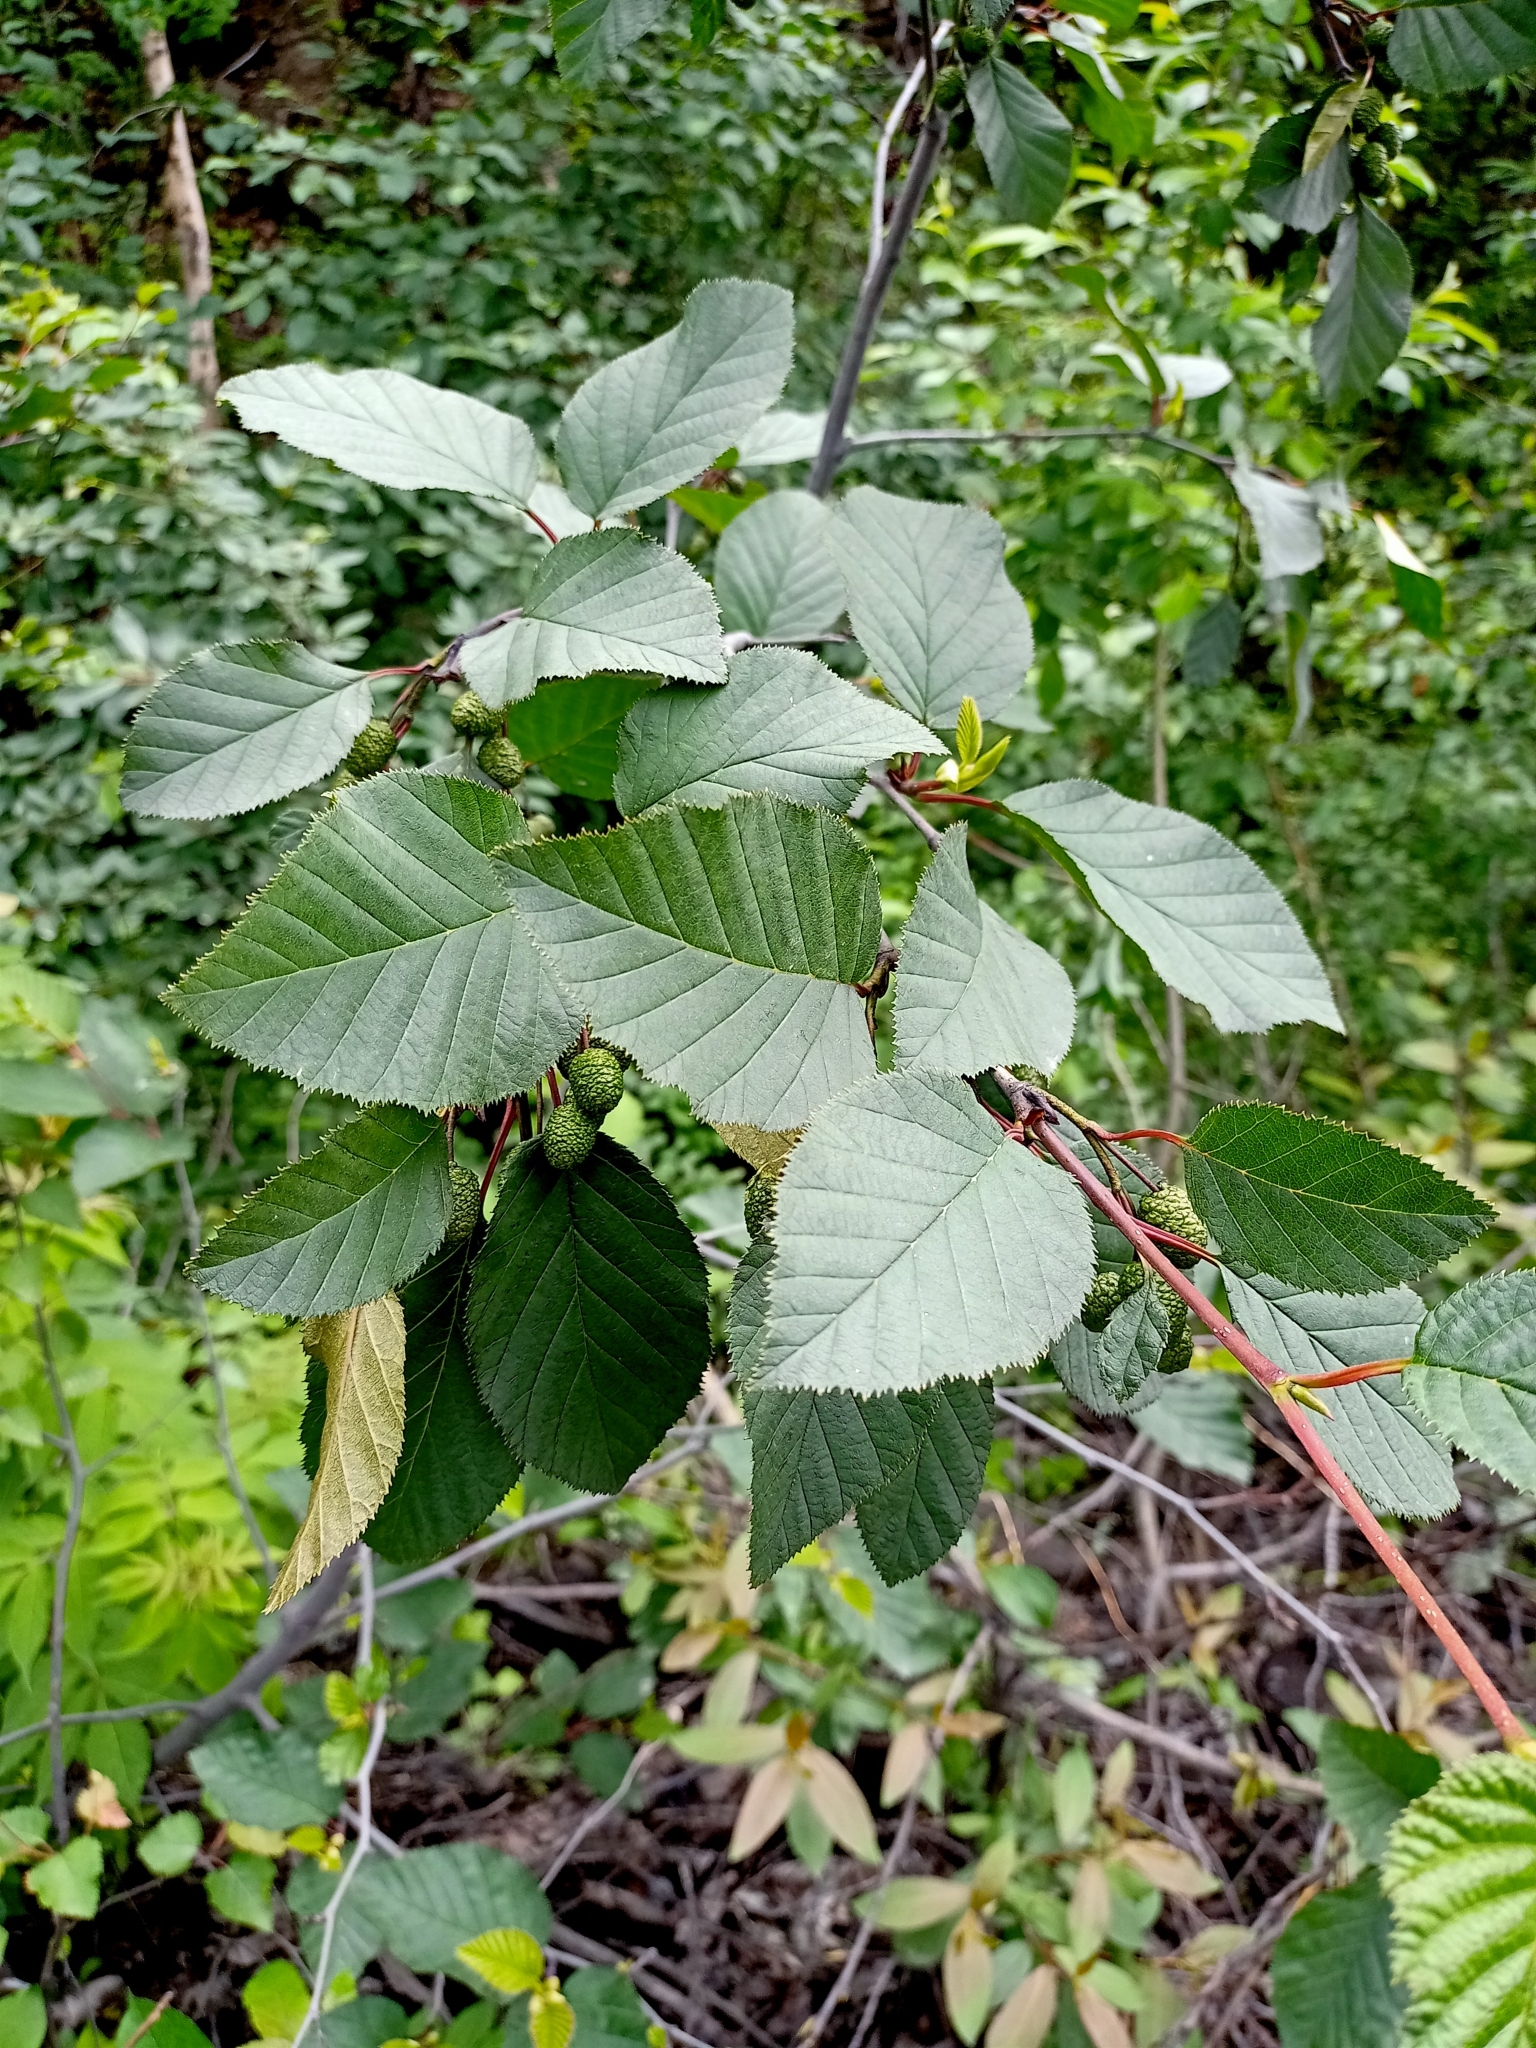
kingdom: Plantae
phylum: Tracheophyta
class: Magnoliopsida
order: Fagales
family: Betulaceae
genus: Alnus
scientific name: Alnus alnobetula
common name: Green alder
